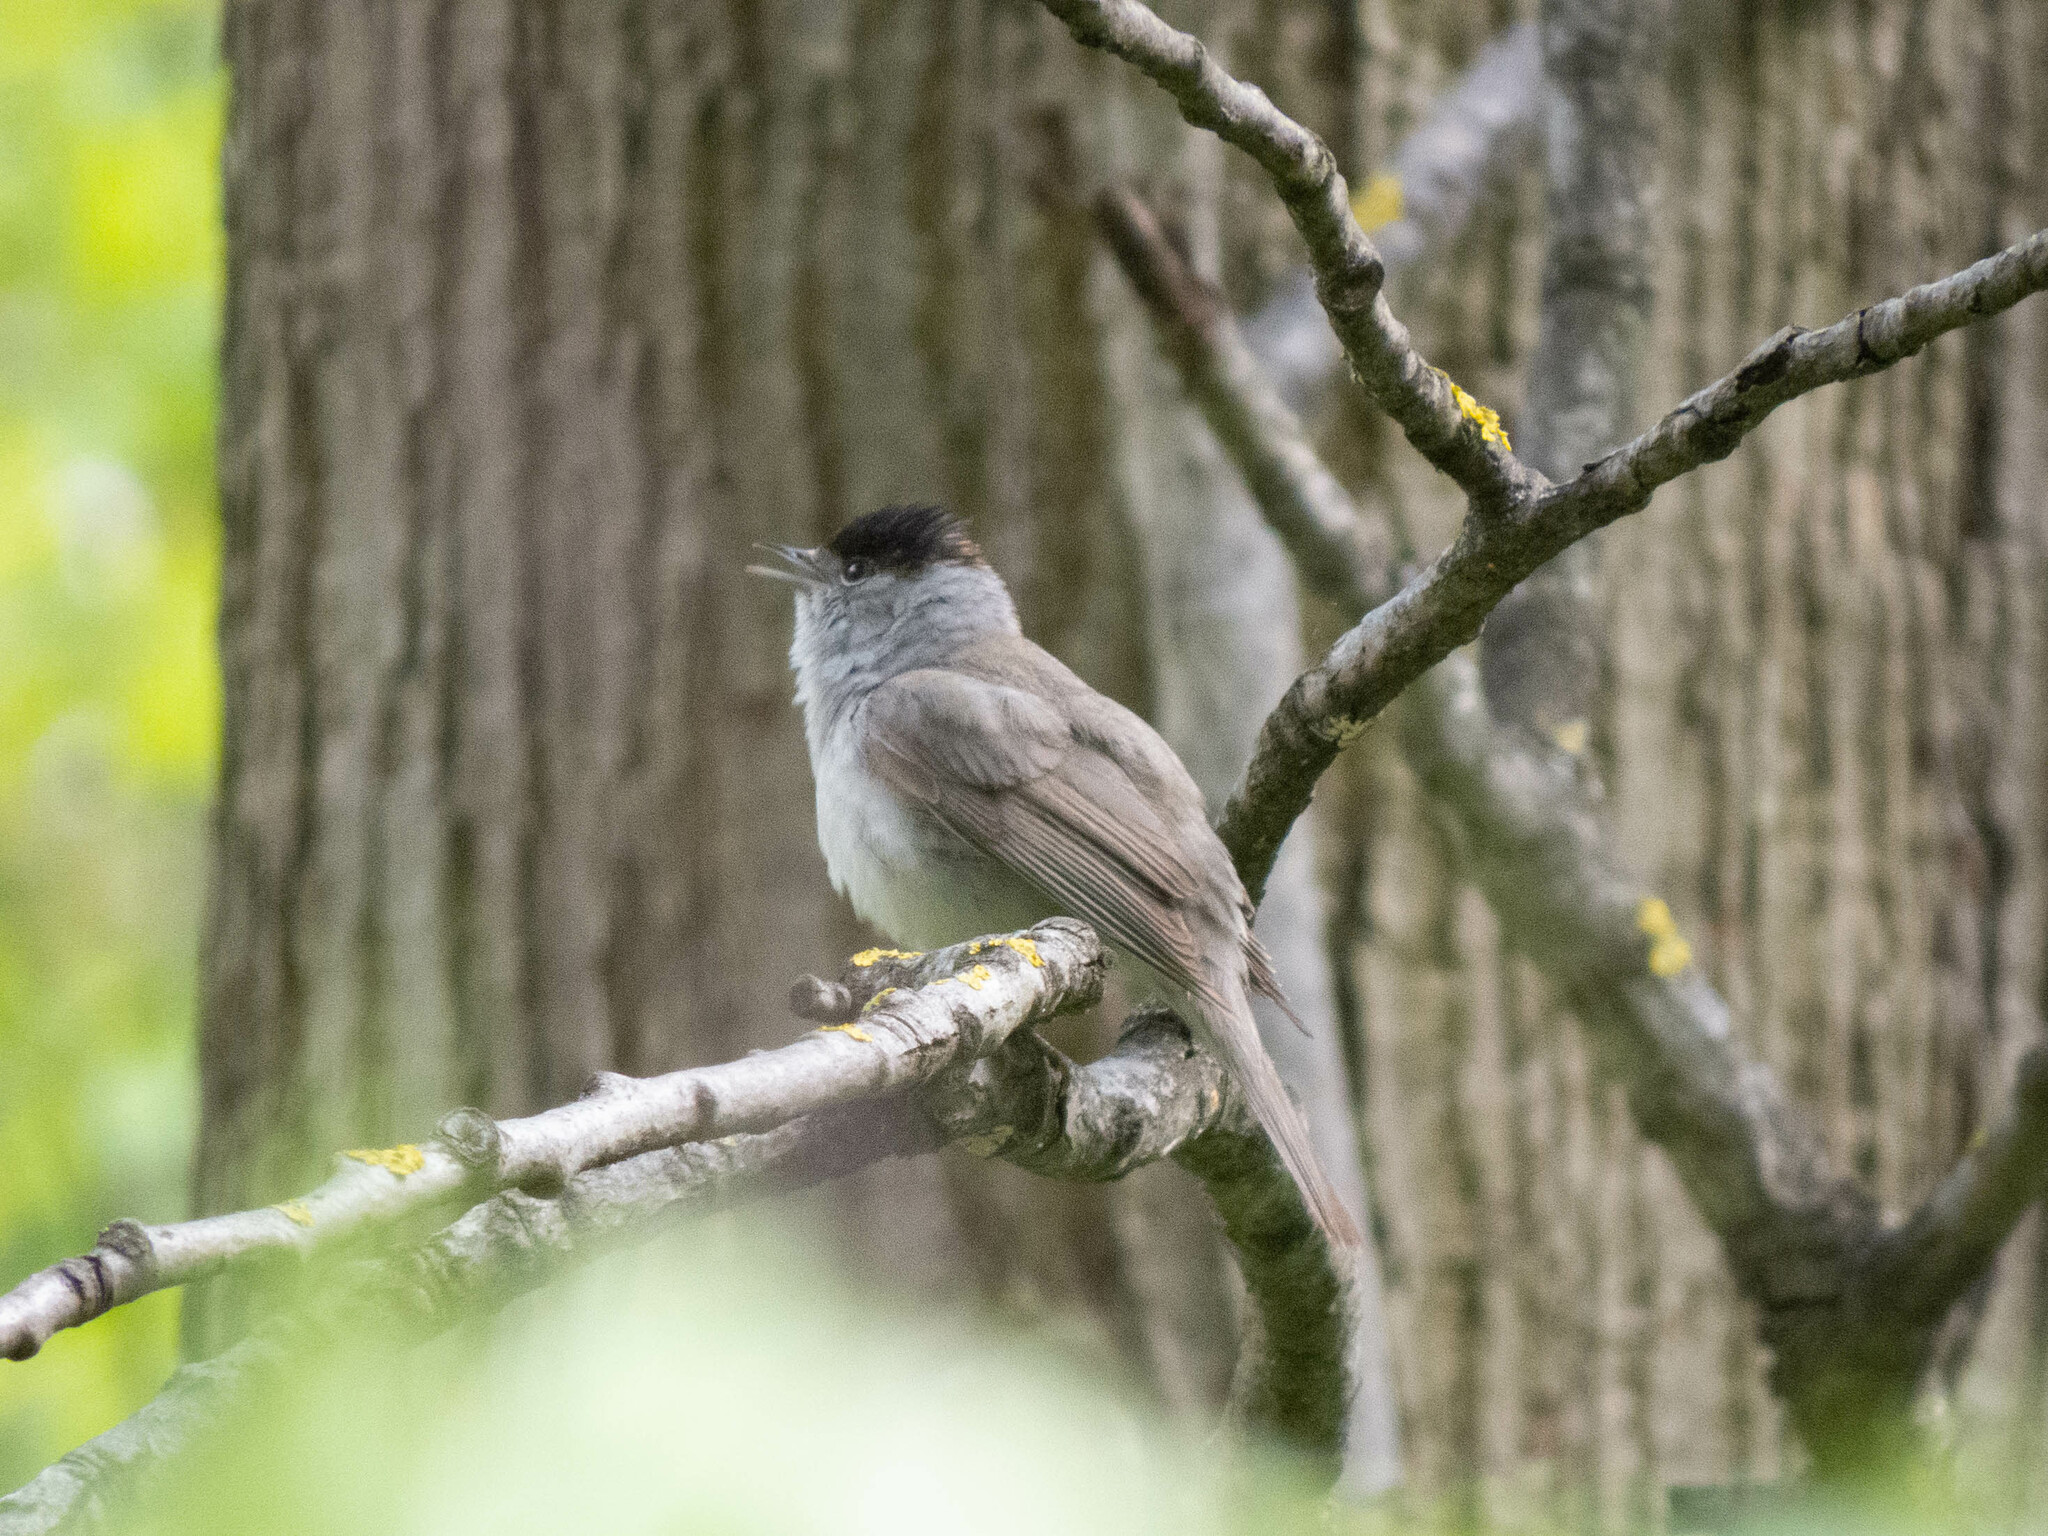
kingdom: Animalia
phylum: Chordata
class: Aves
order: Passeriformes
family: Sylviidae
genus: Sylvia
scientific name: Sylvia atricapilla
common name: Eurasian blackcap
